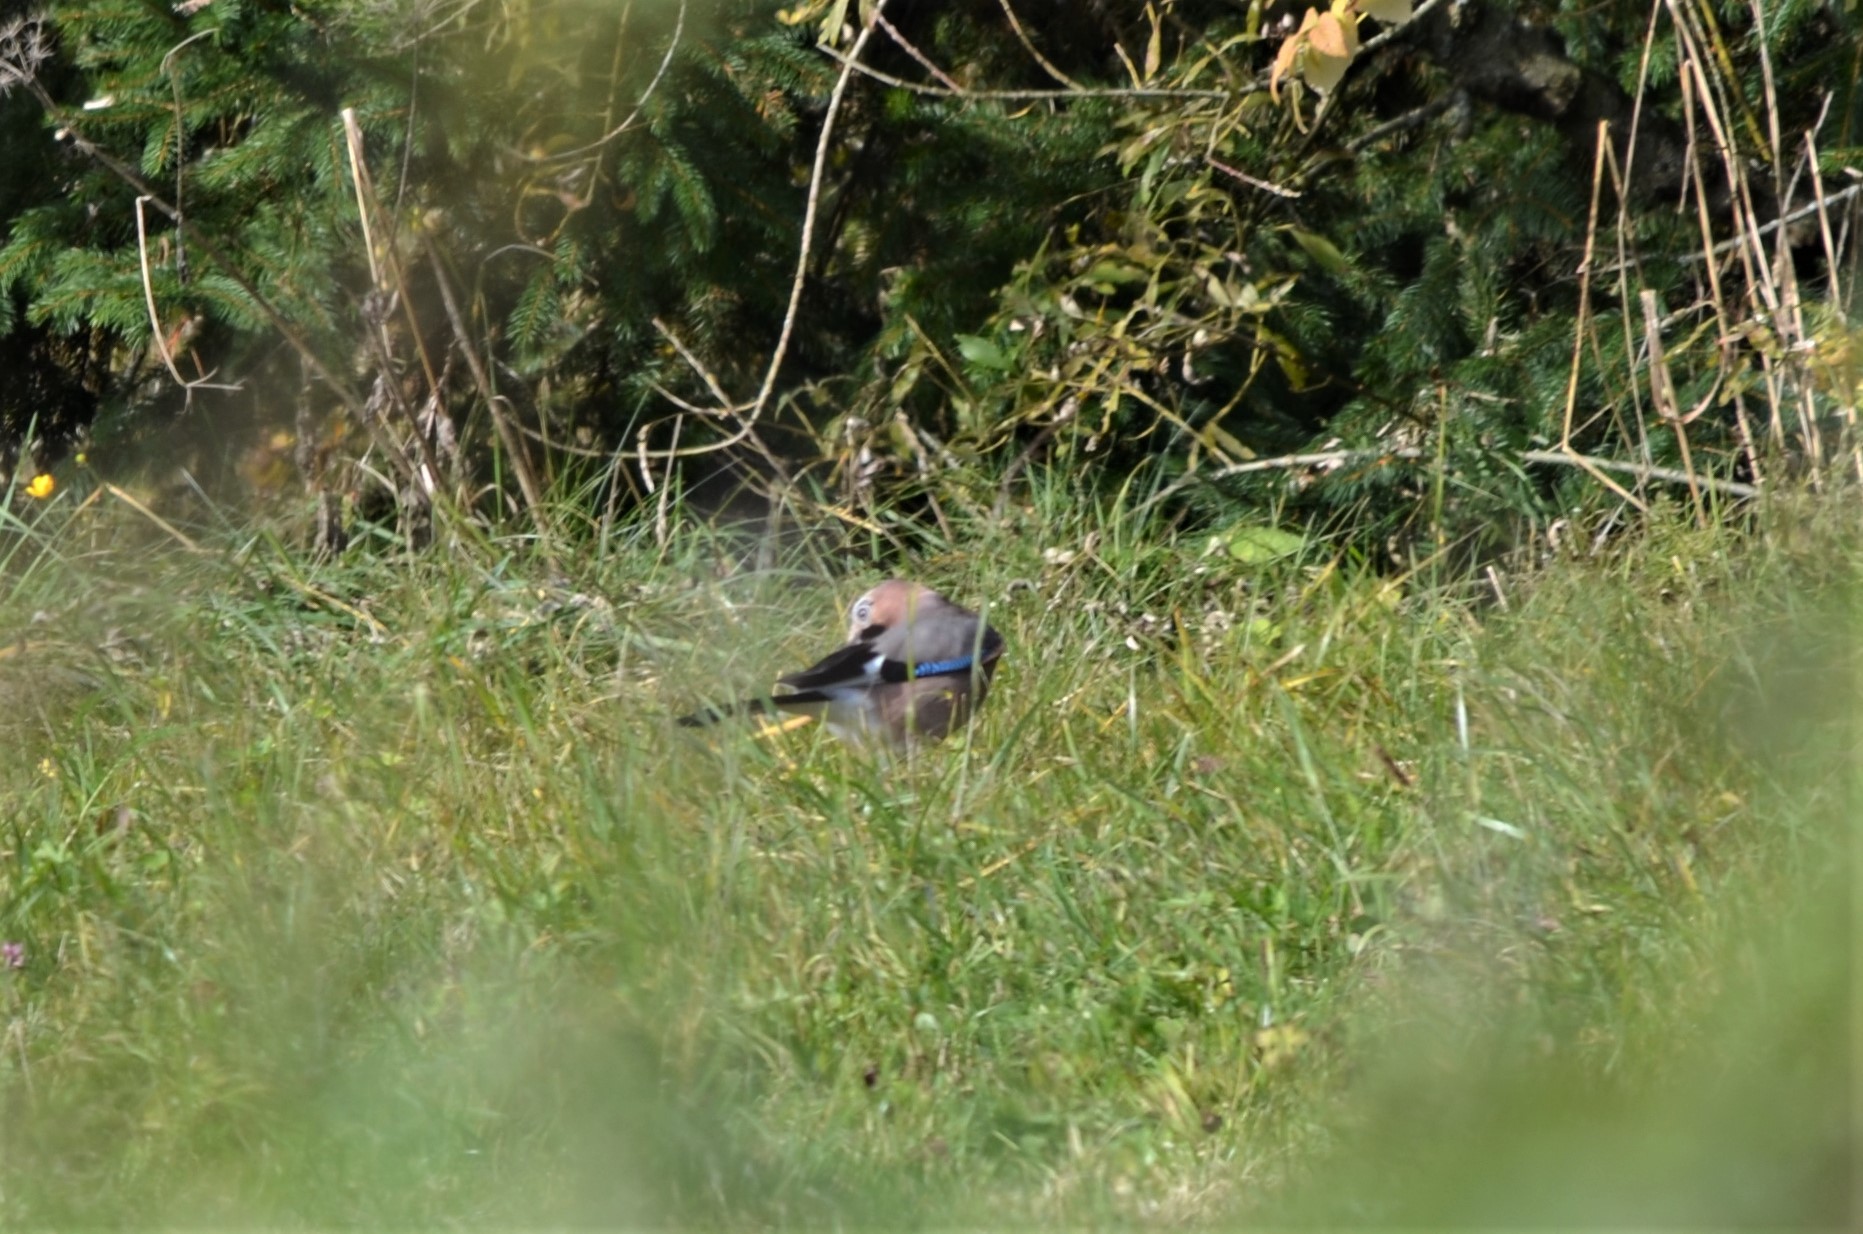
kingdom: Animalia
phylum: Chordata
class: Aves
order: Passeriformes
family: Corvidae
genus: Garrulus
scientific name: Garrulus glandarius
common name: Eurasian jay
